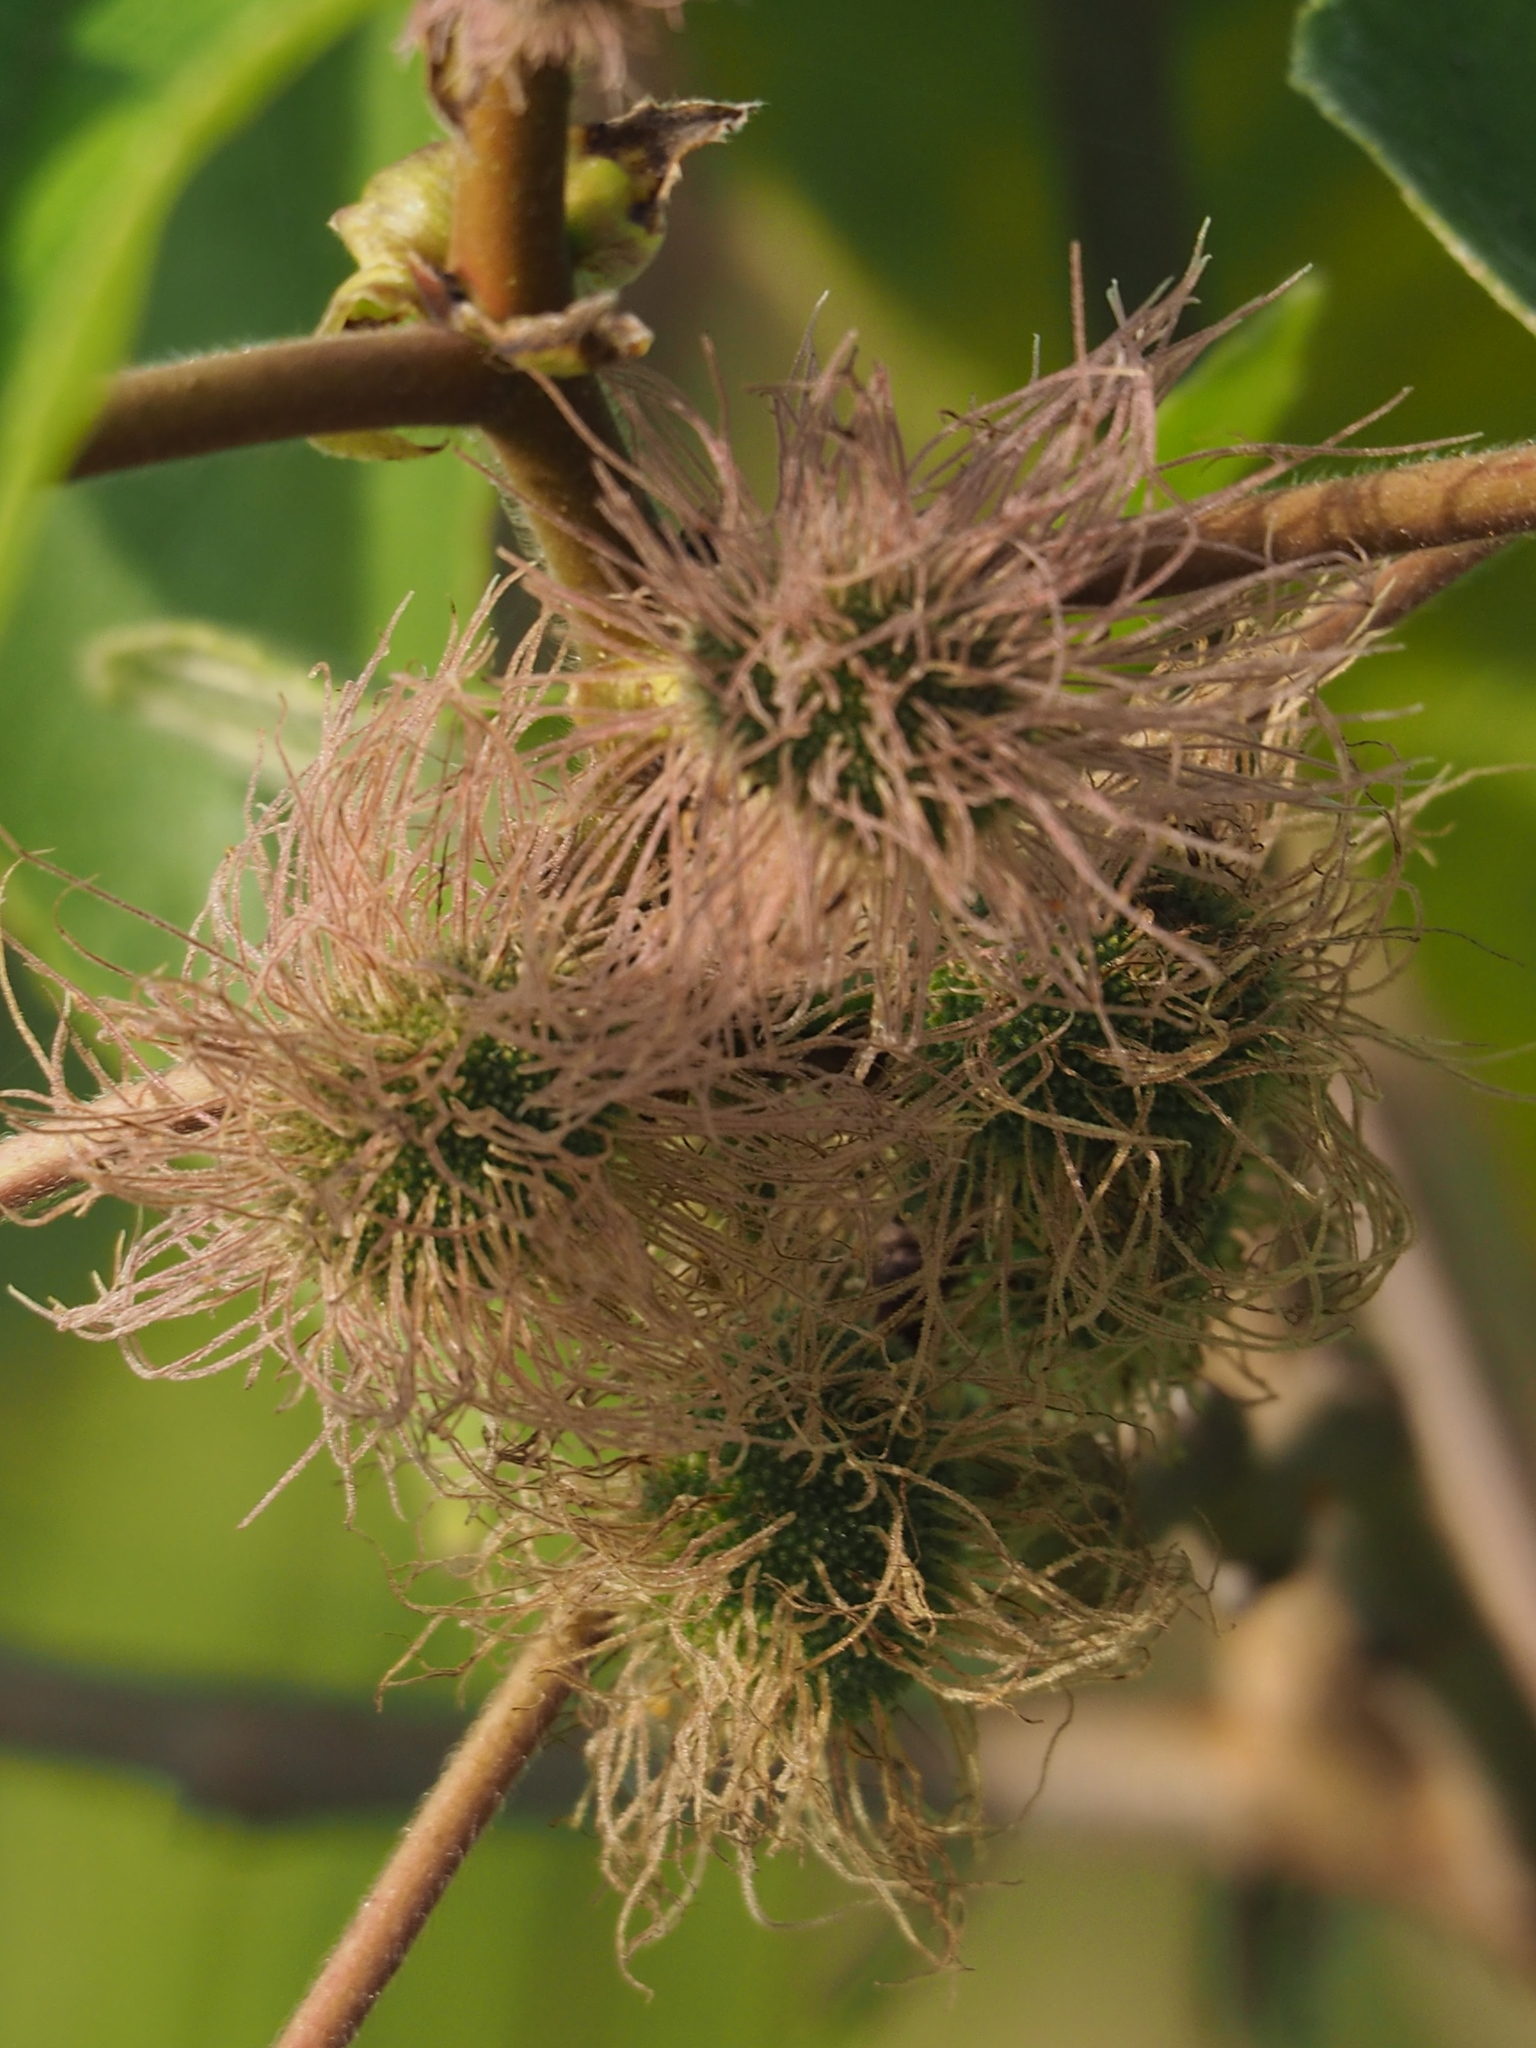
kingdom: Plantae
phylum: Tracheophyta
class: Magnoliopsida
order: Rosales
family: Moraceae
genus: Broussonetia
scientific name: Broussonetia papyrifera
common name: Paper mulberry
